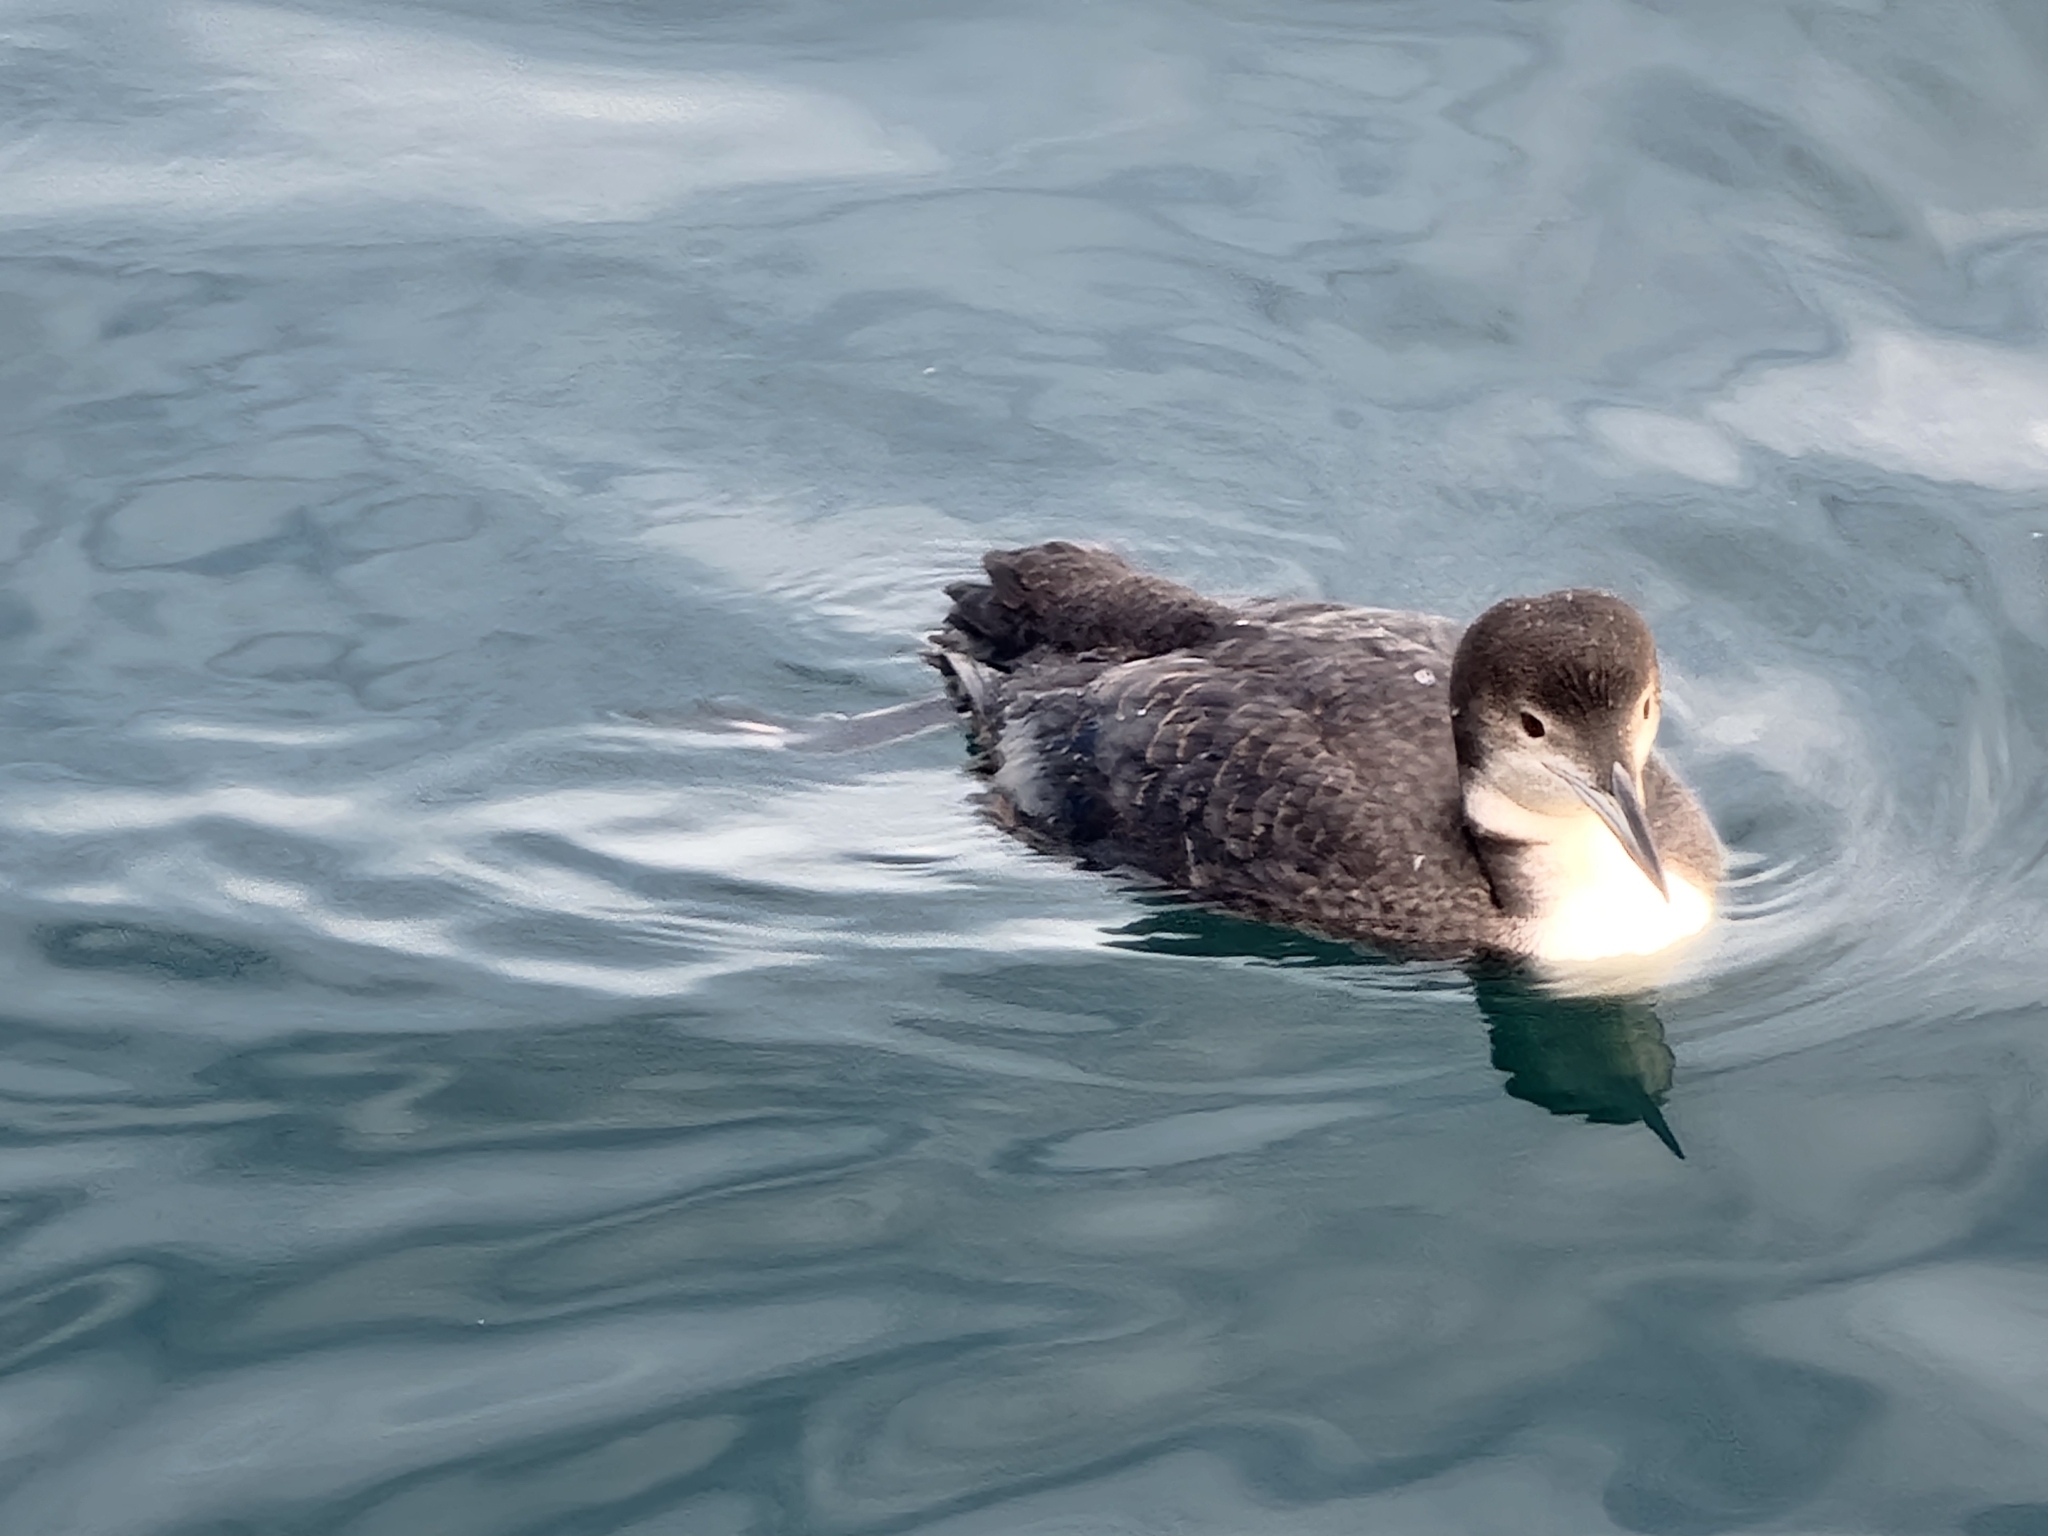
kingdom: Animalia
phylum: Chordata
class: Aves
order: Gaviiformes
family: Gaviidae
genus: Gavia
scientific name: Gavia immer
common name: Common loon
